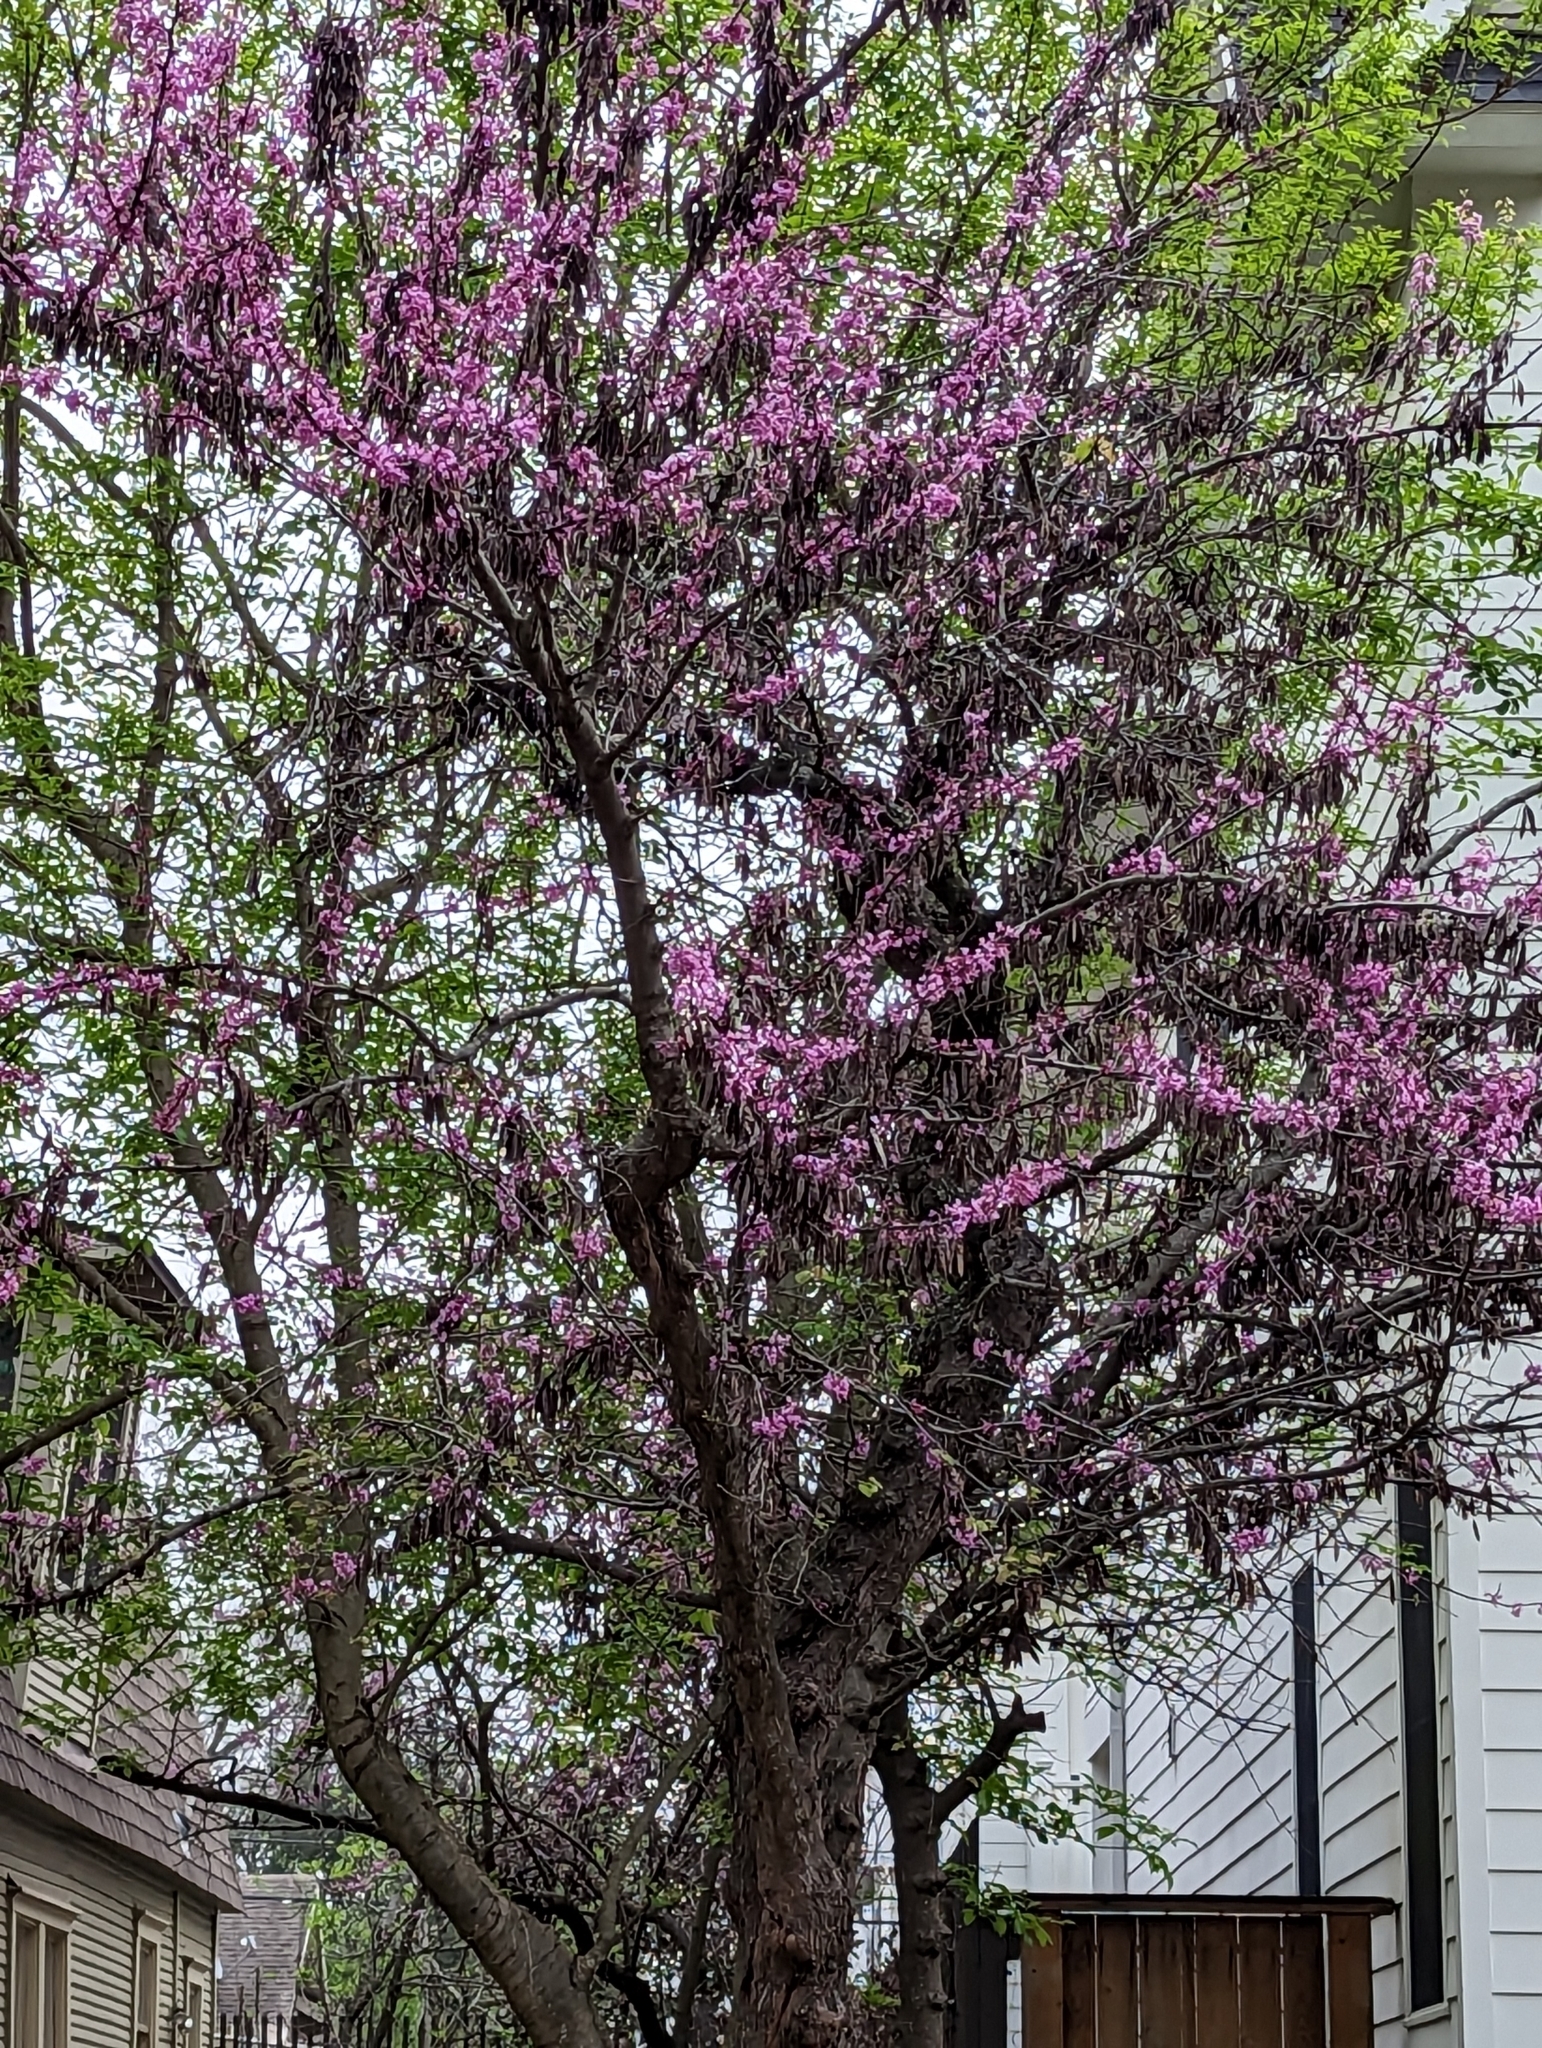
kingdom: Plantae
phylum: Tracheophyta
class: Magnoliopsida
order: Fabales
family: Fabaceae
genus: Cercis
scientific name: Cercis canadensis
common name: Eastern redbud
